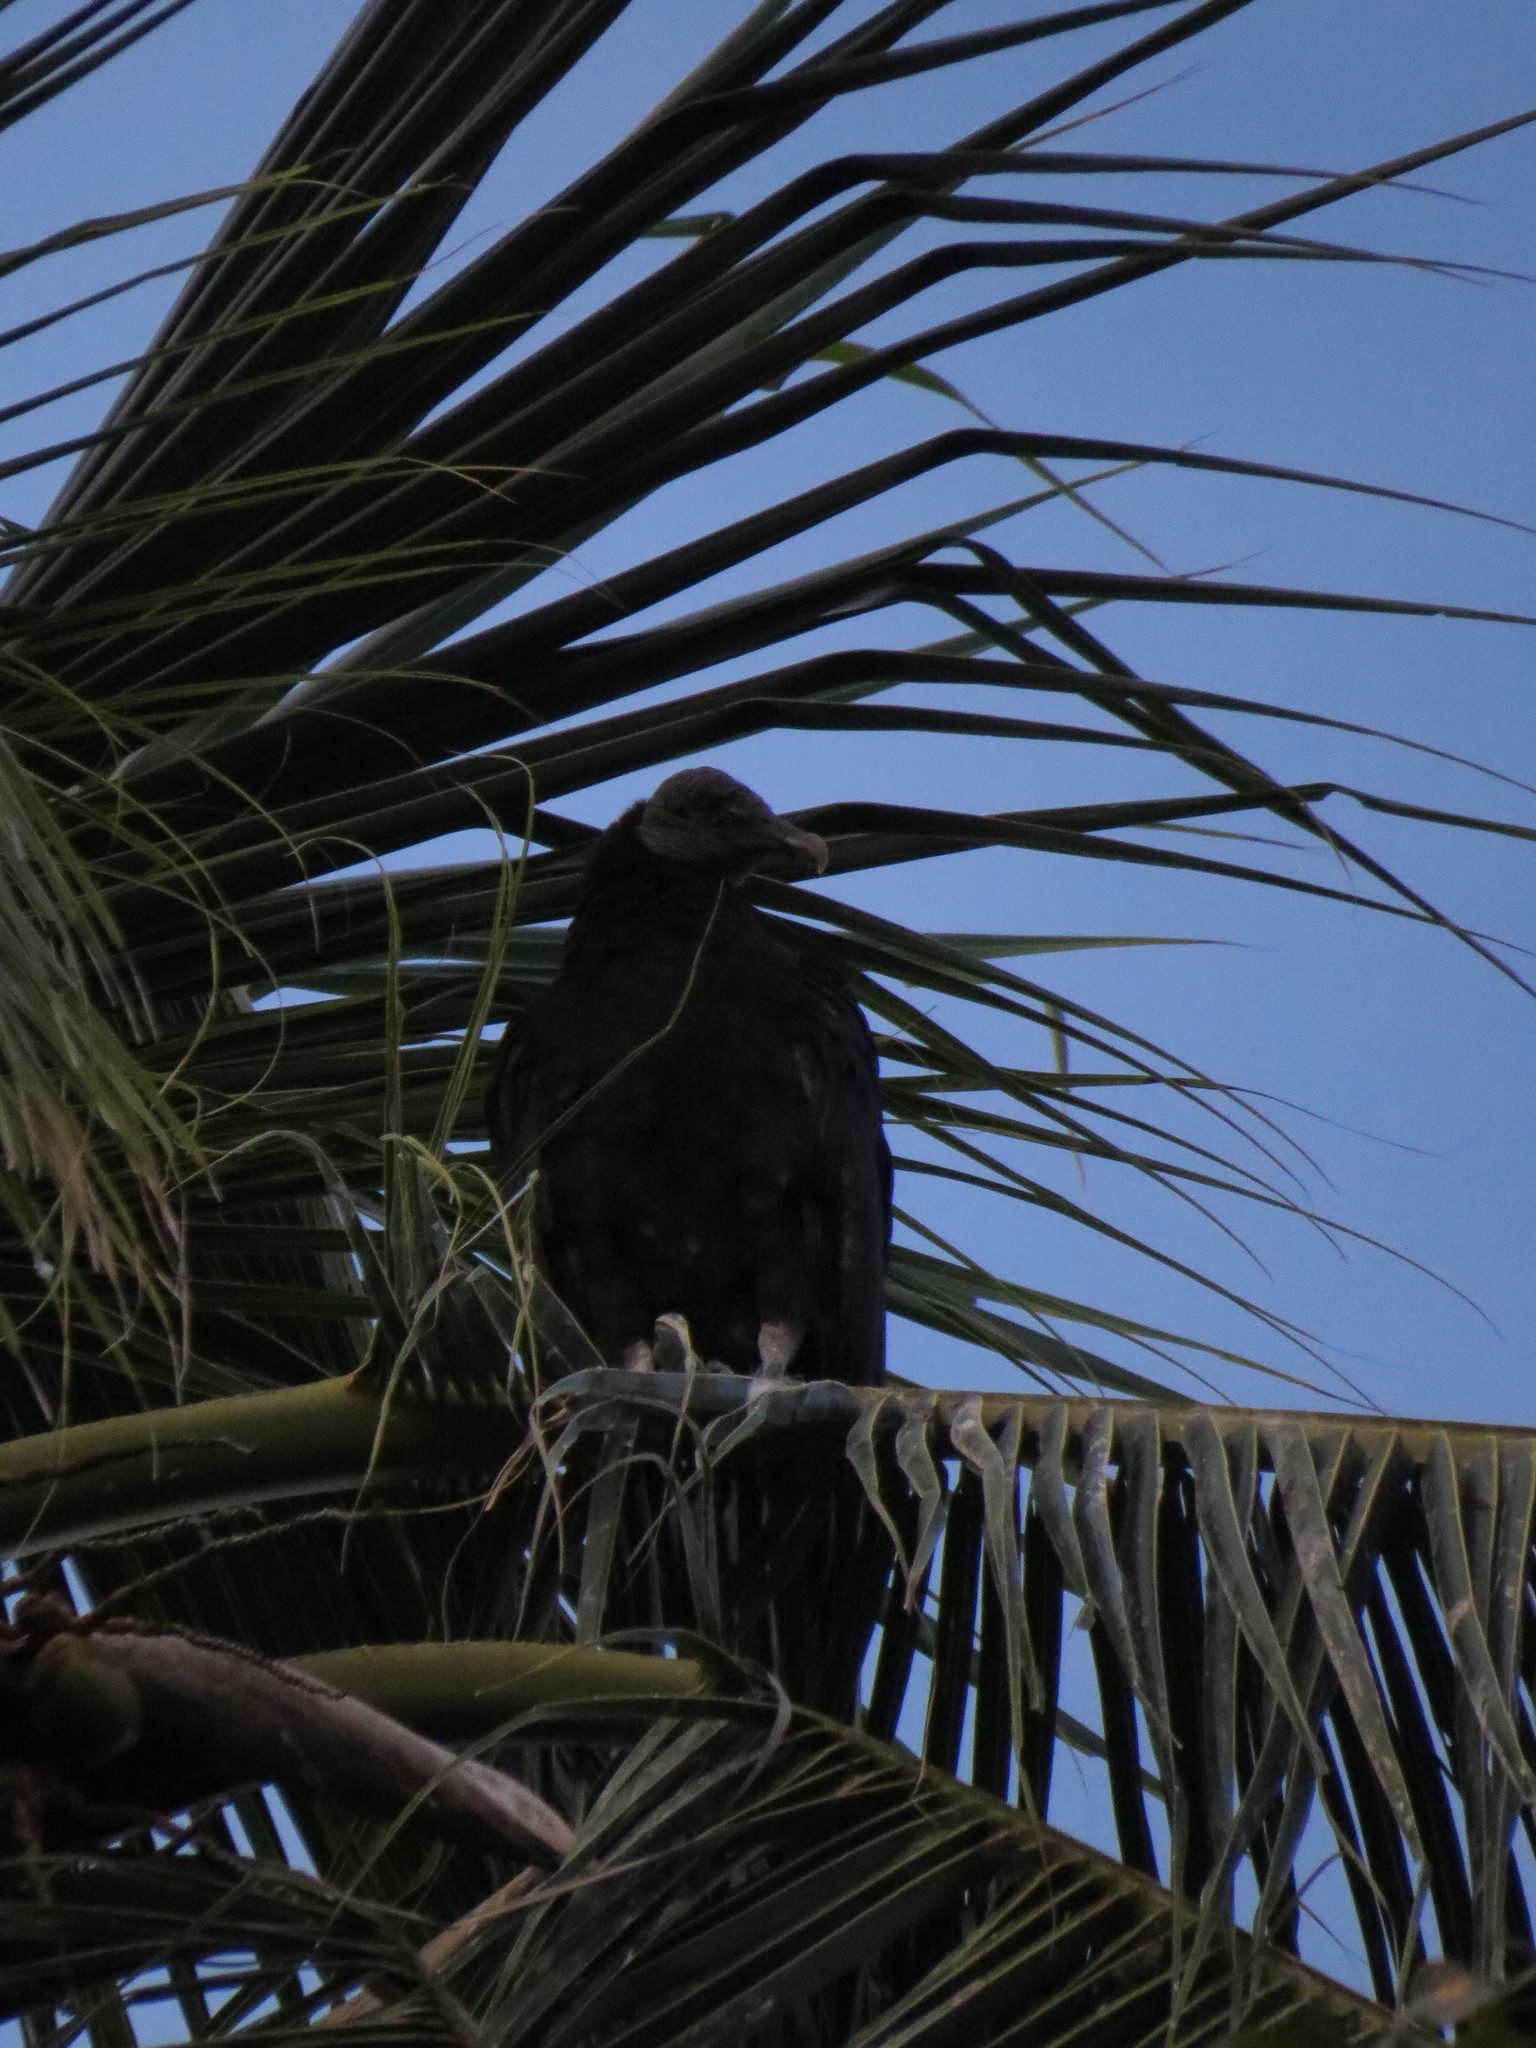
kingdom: Animalia
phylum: Chordata
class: Aves
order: Accipitriformes
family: Cathartidae
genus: Coragyps
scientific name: Coragyps atratus
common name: Black vulture
